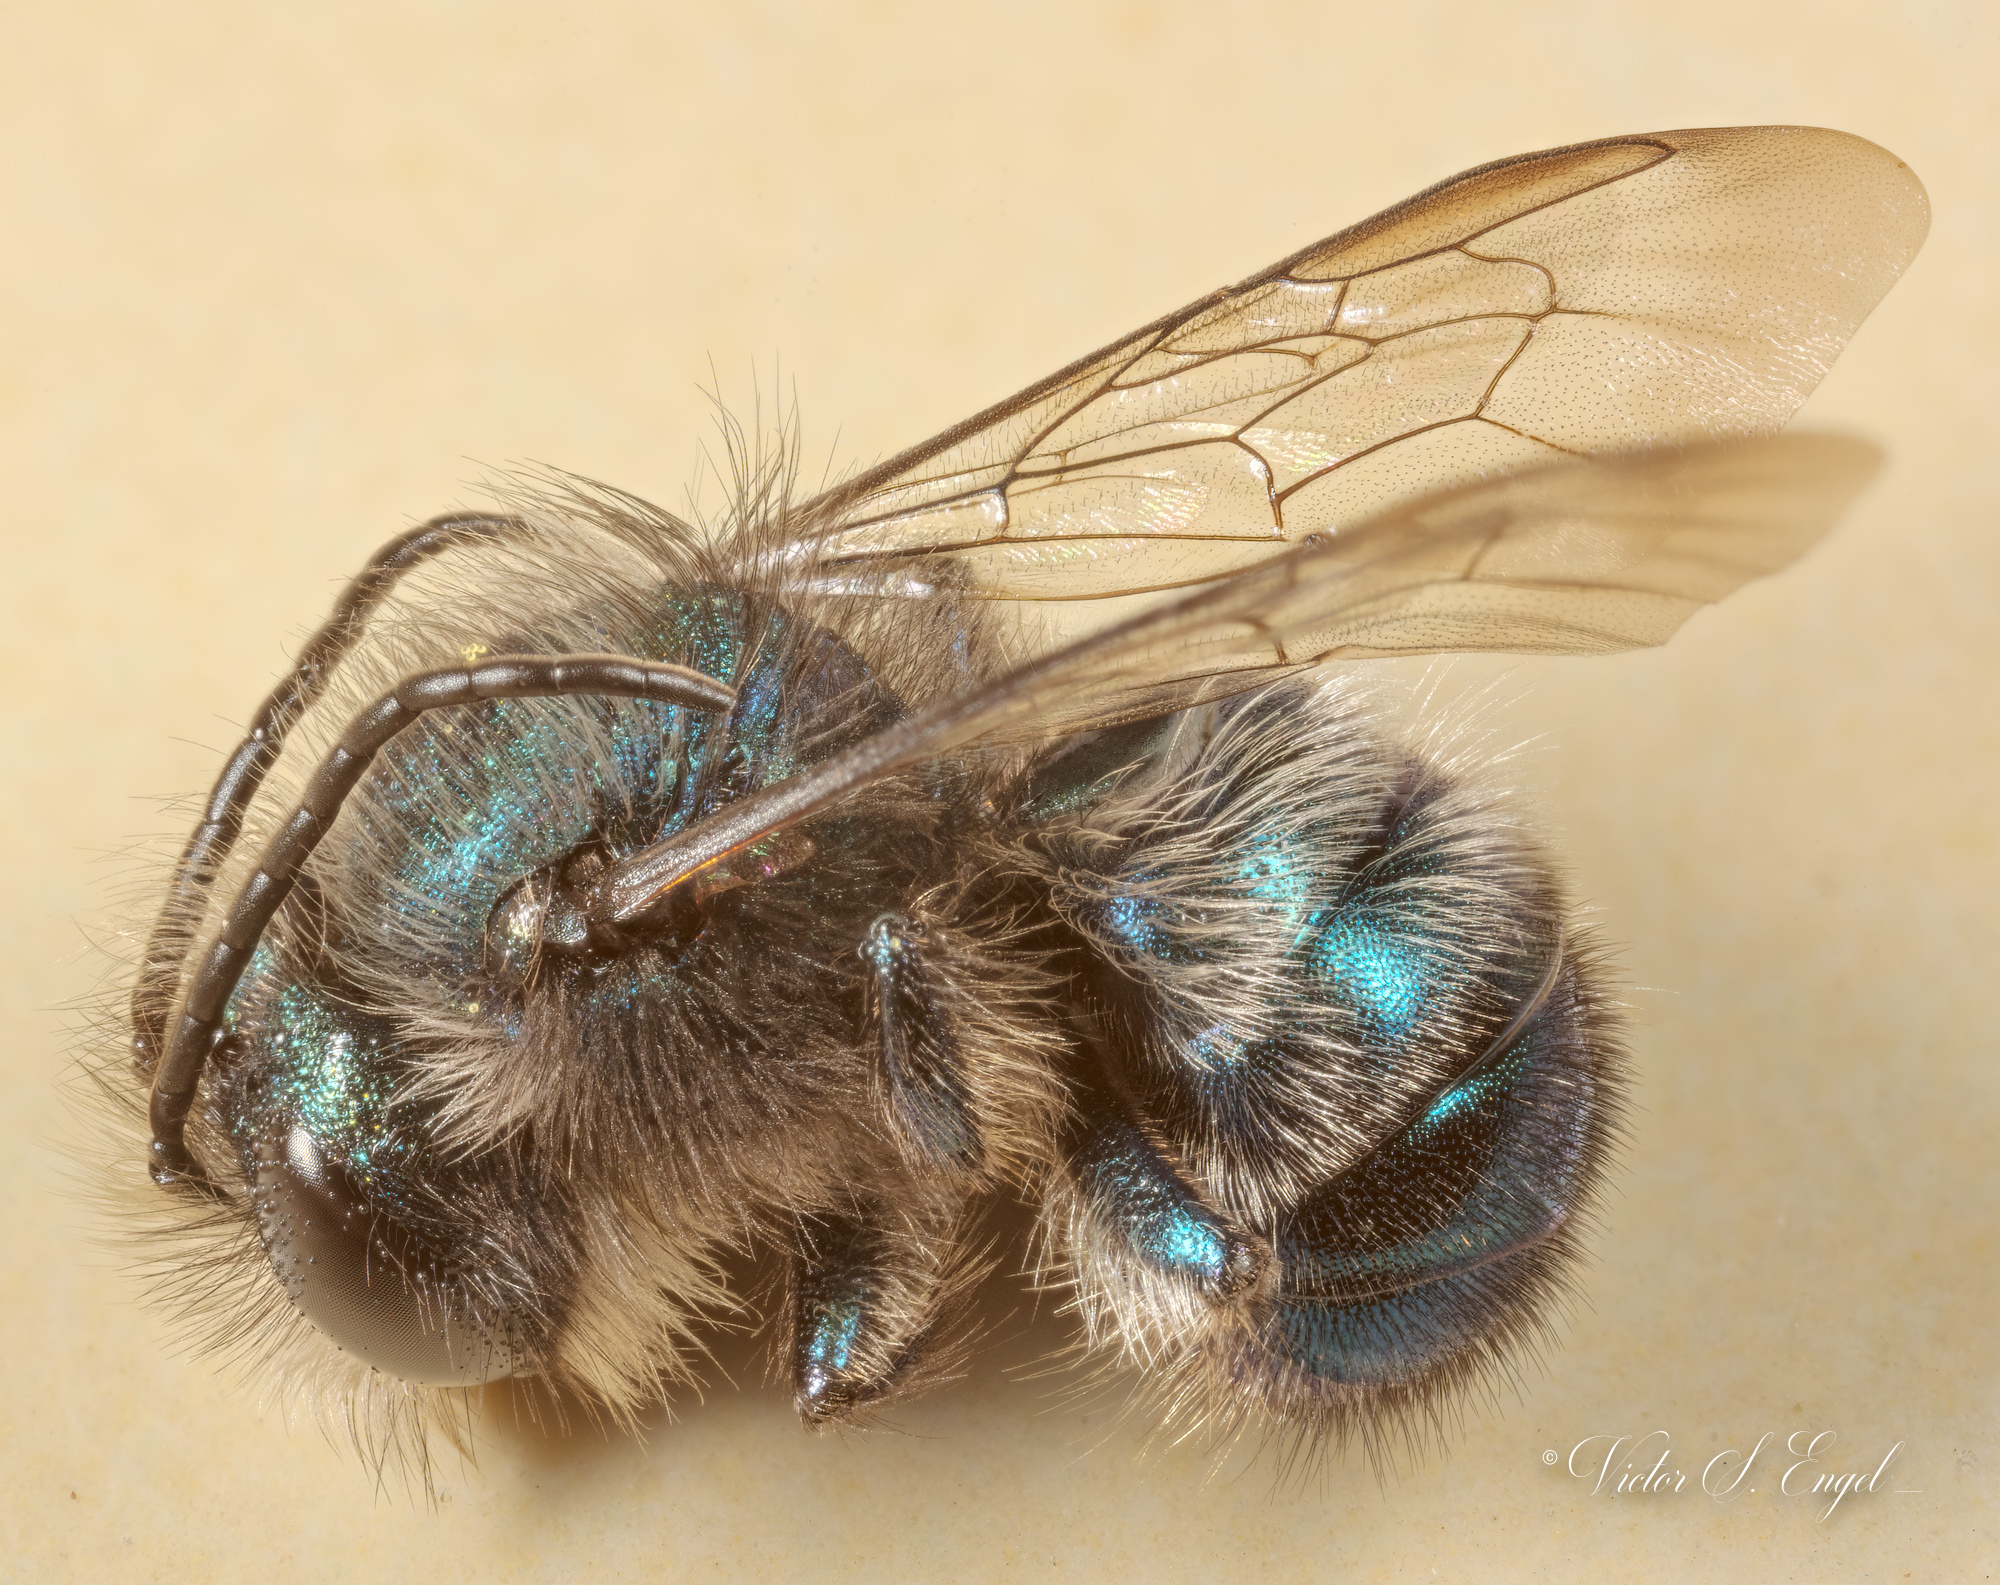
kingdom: Animalia
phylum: Arthropoda
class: Insecta
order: Hymenoptera
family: Megachilidae
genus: Osmia
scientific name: Osmia ribifloris
